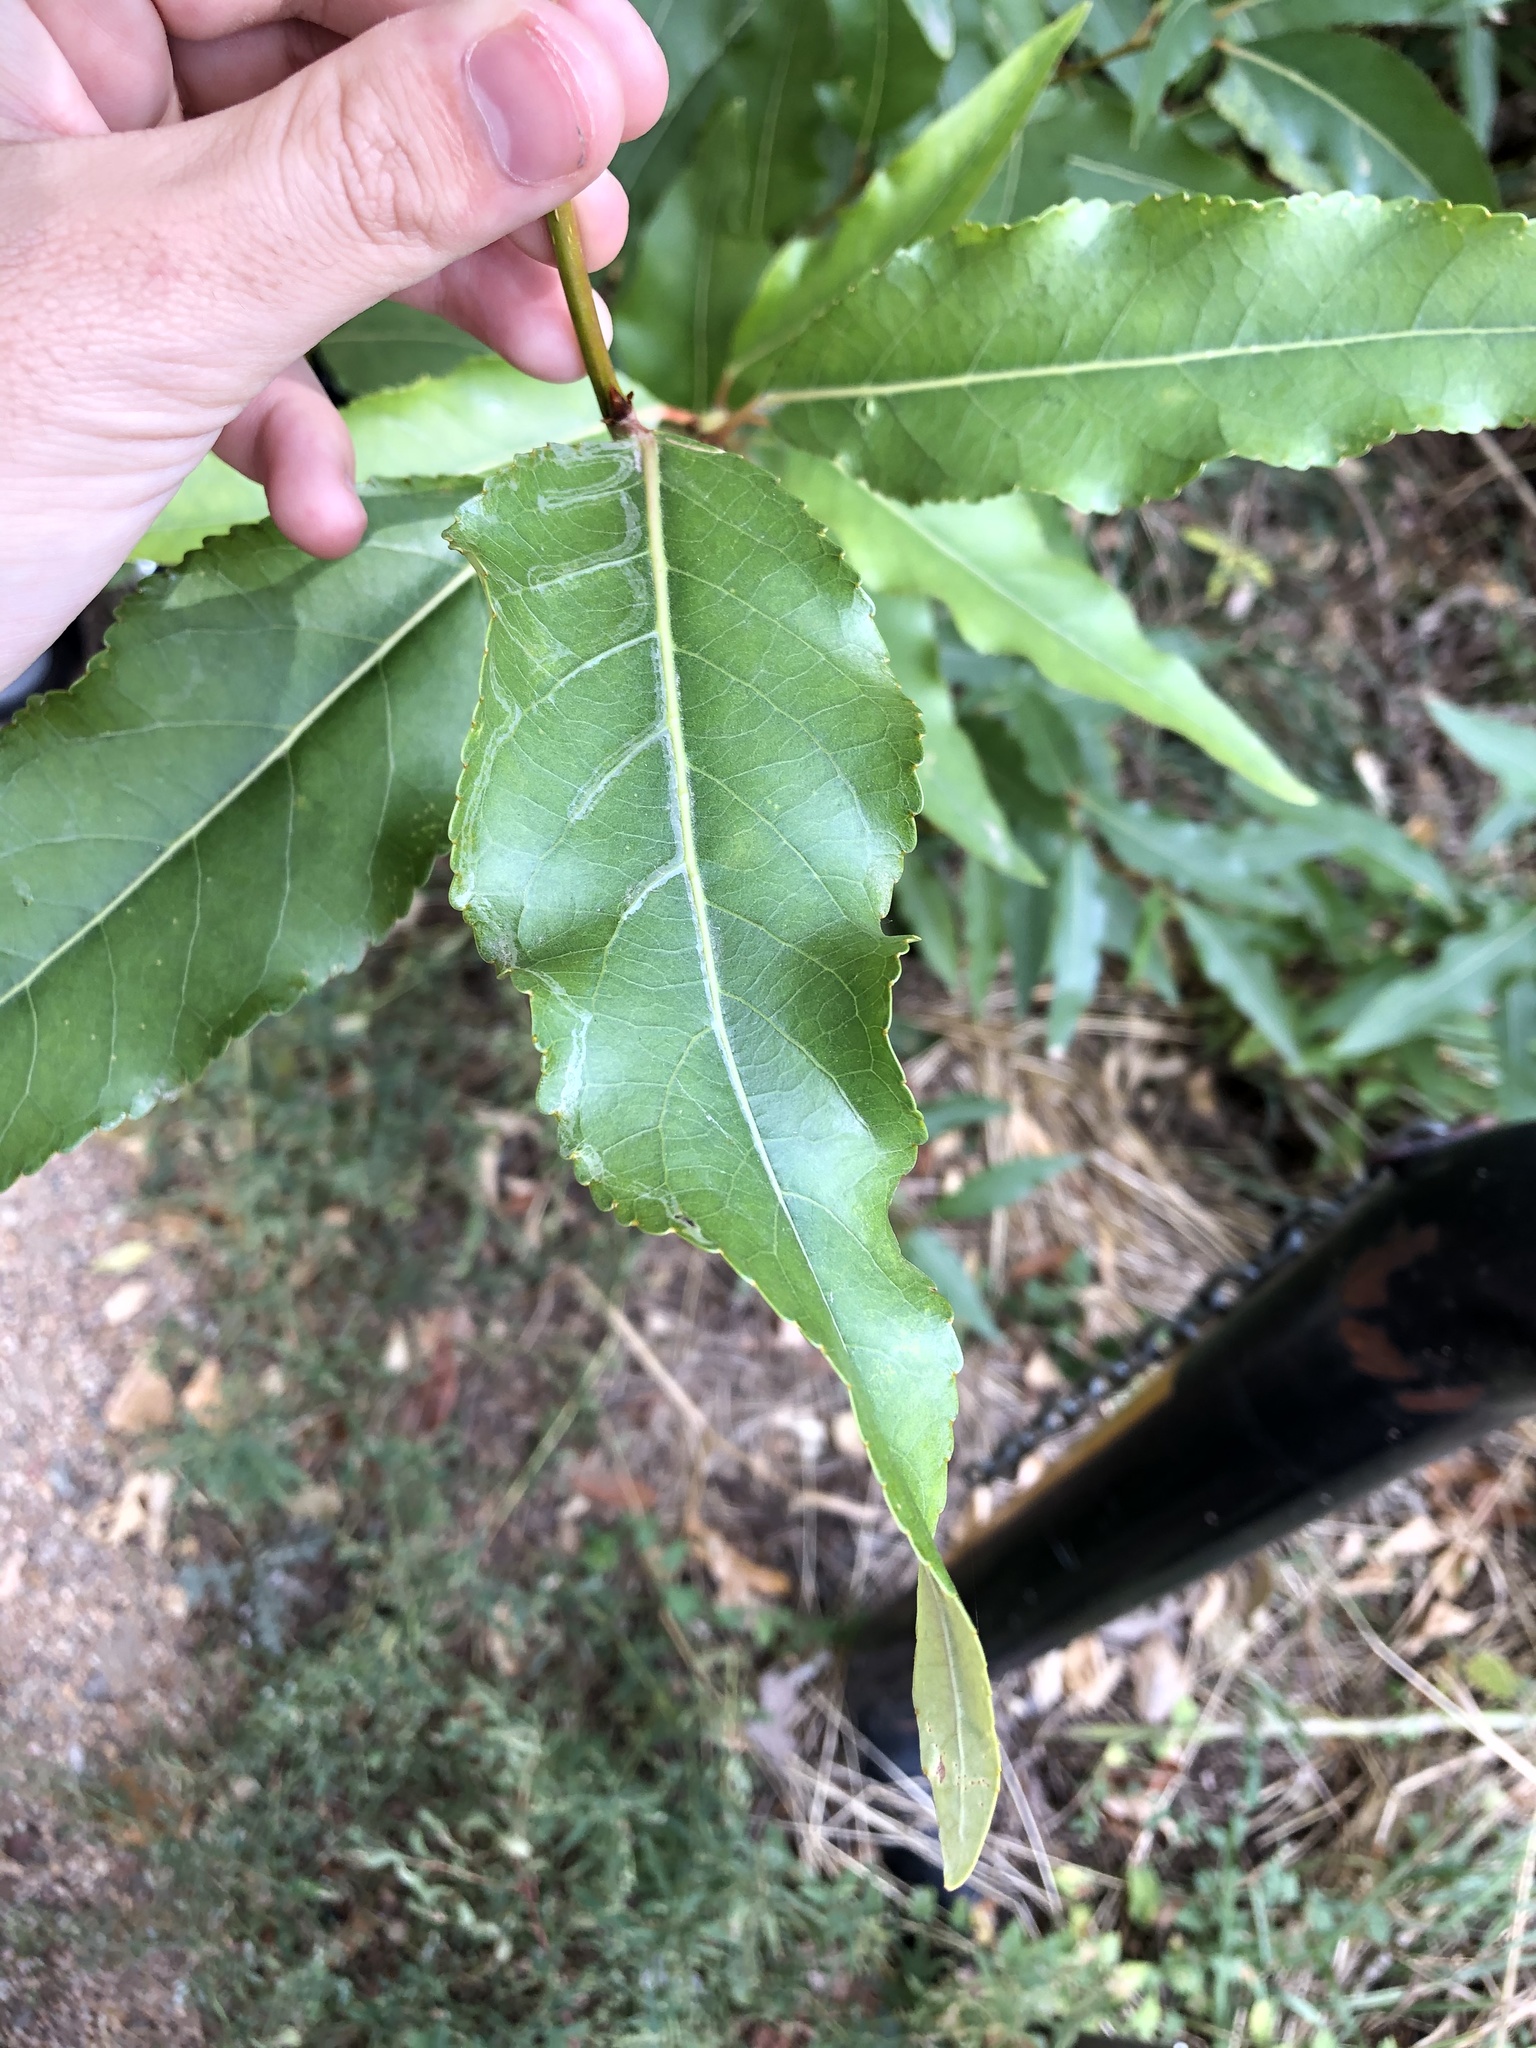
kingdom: Plantae
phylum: Tracheophyta
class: Magnoliopsida
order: Malpighiales
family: Salicaceae
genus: Populus
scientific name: Populus angustifolia
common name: Willow cottonwood
